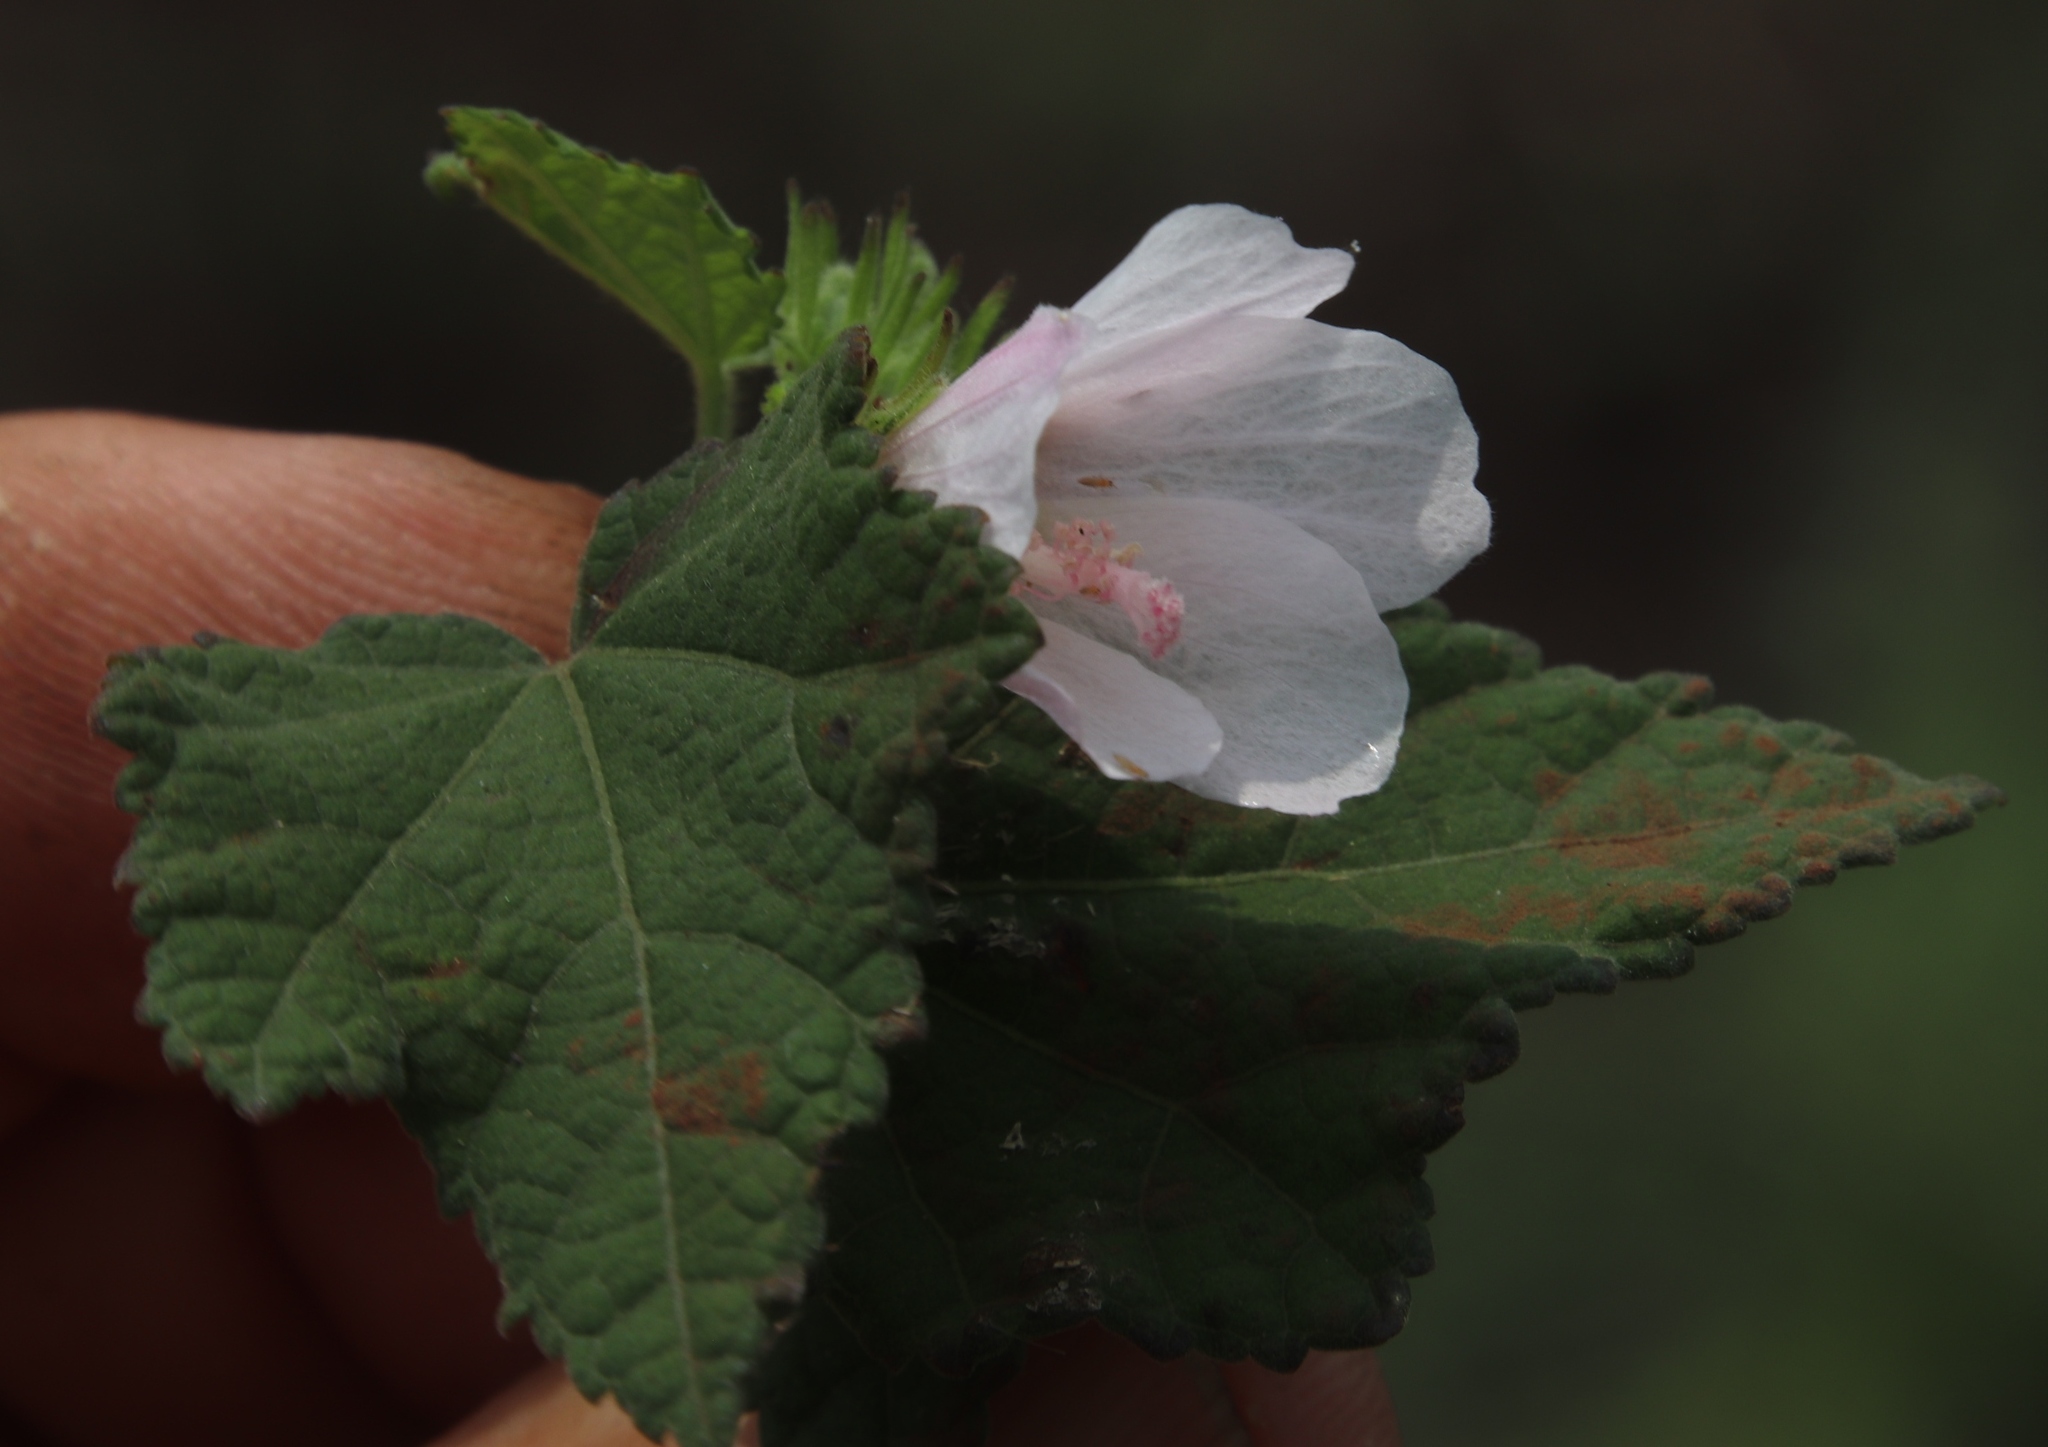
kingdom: Plantae
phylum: Tracheophyta
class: Magnoliopsida
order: Malvales
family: Malvaceae
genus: Pavonia
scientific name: Pavonia columella
